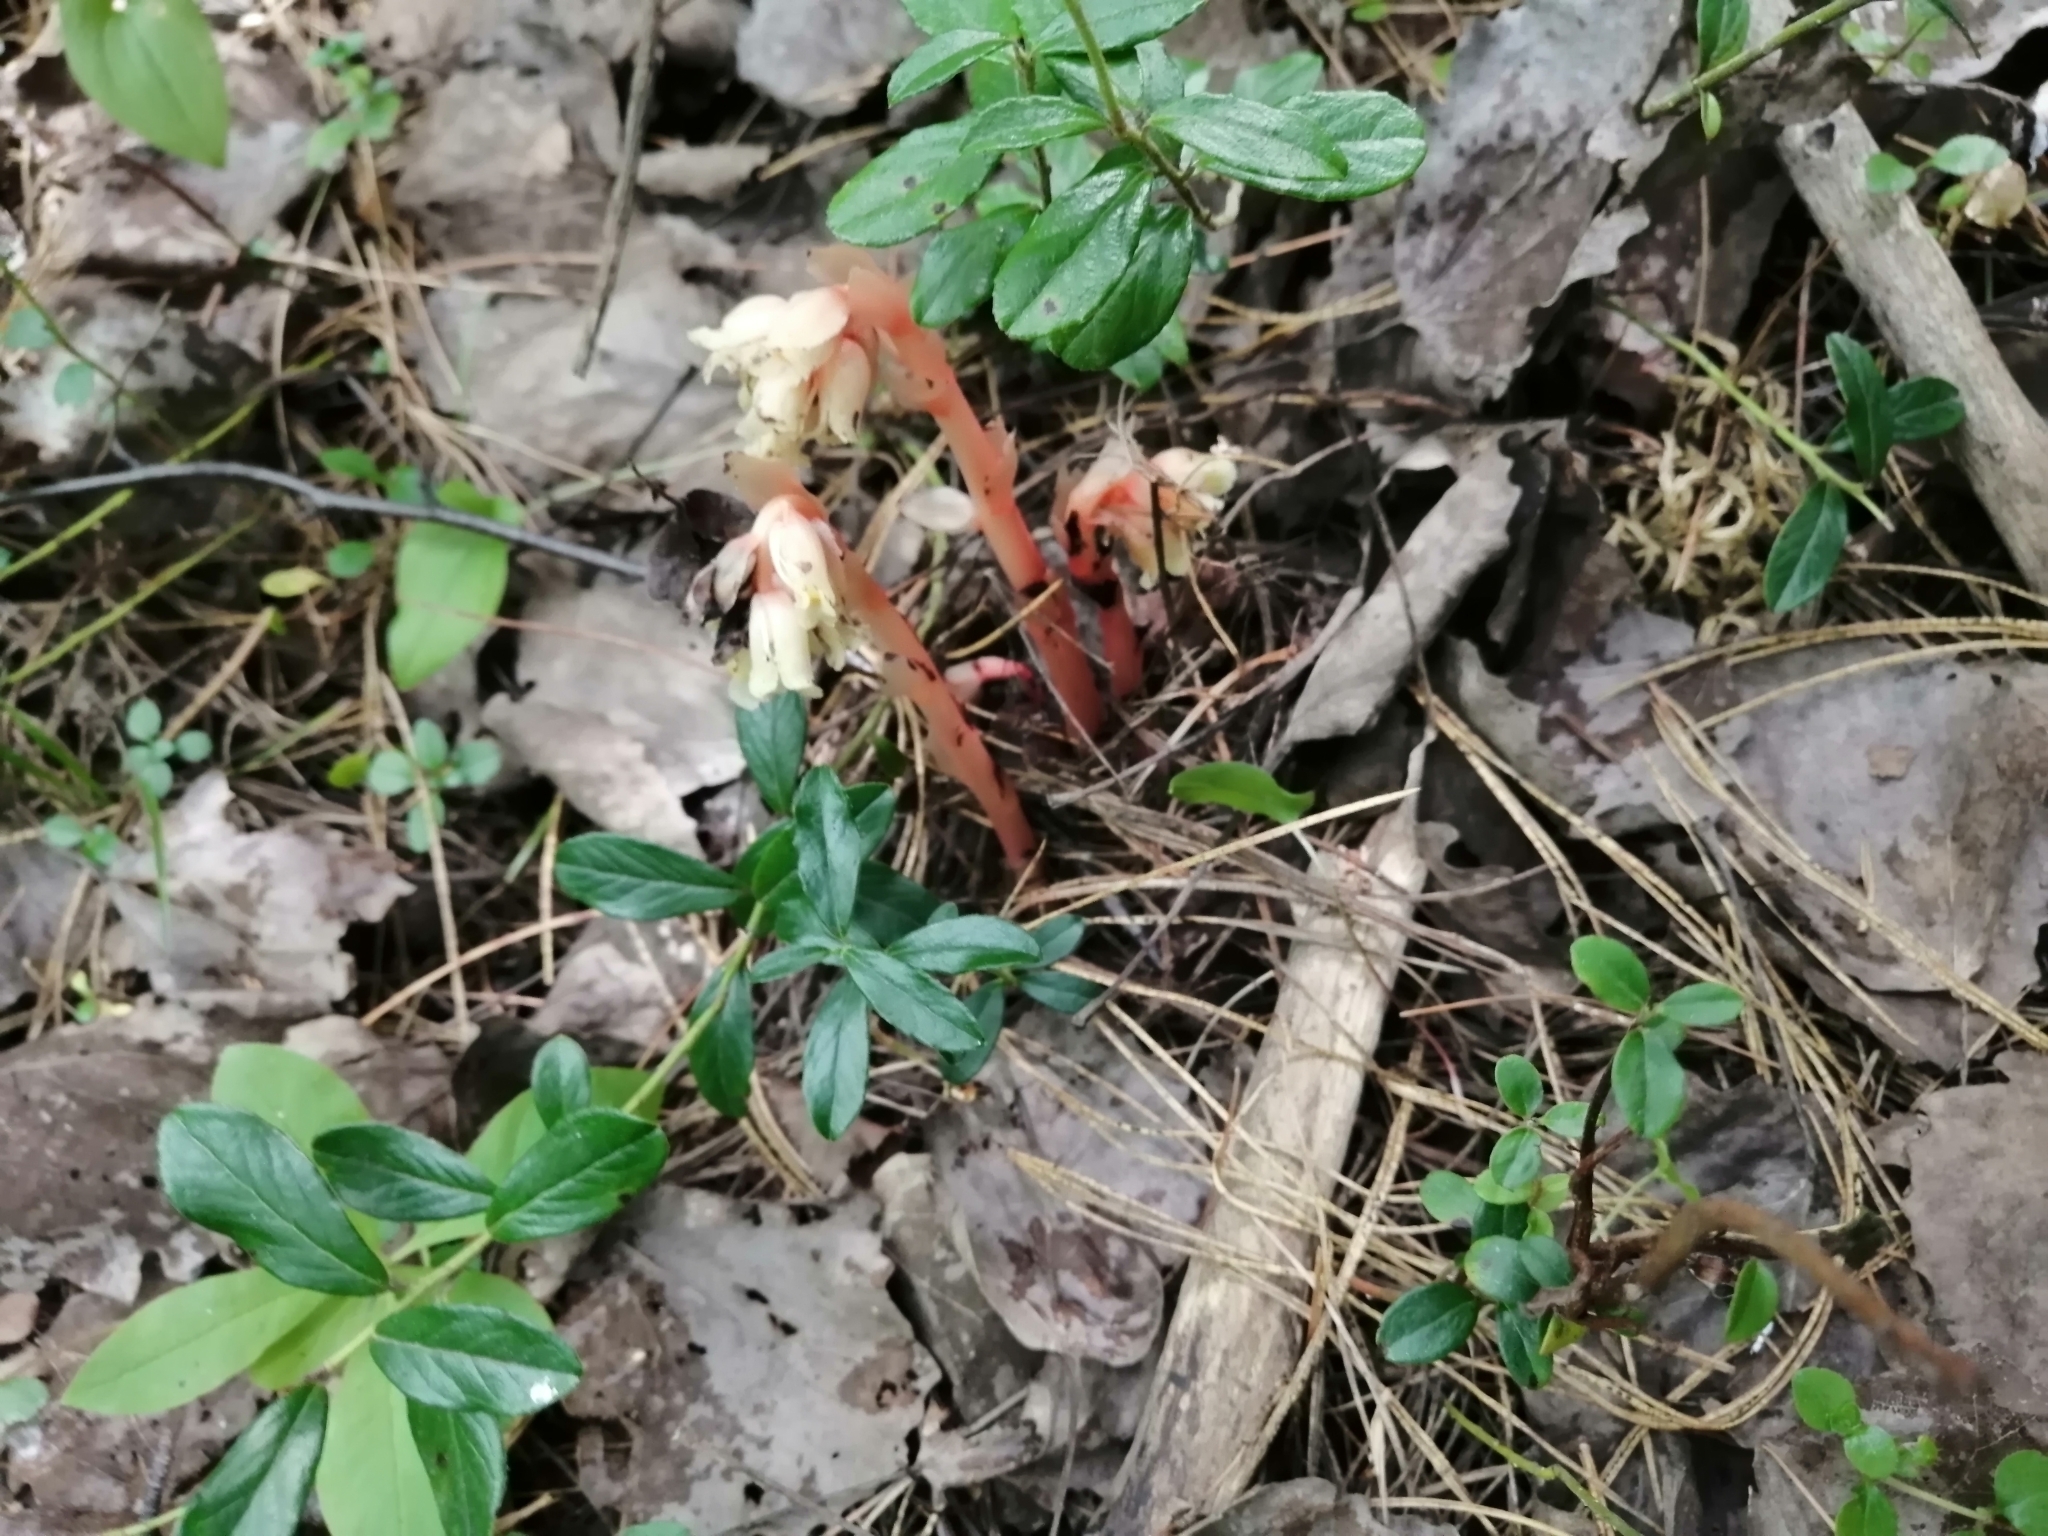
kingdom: Plantae
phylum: Tracheophyta
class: Magnoliopsida
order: Ericales
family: Ericaceae
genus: Hypopitys
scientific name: Hypopitys monotropa
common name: Yellow bird's-nest
